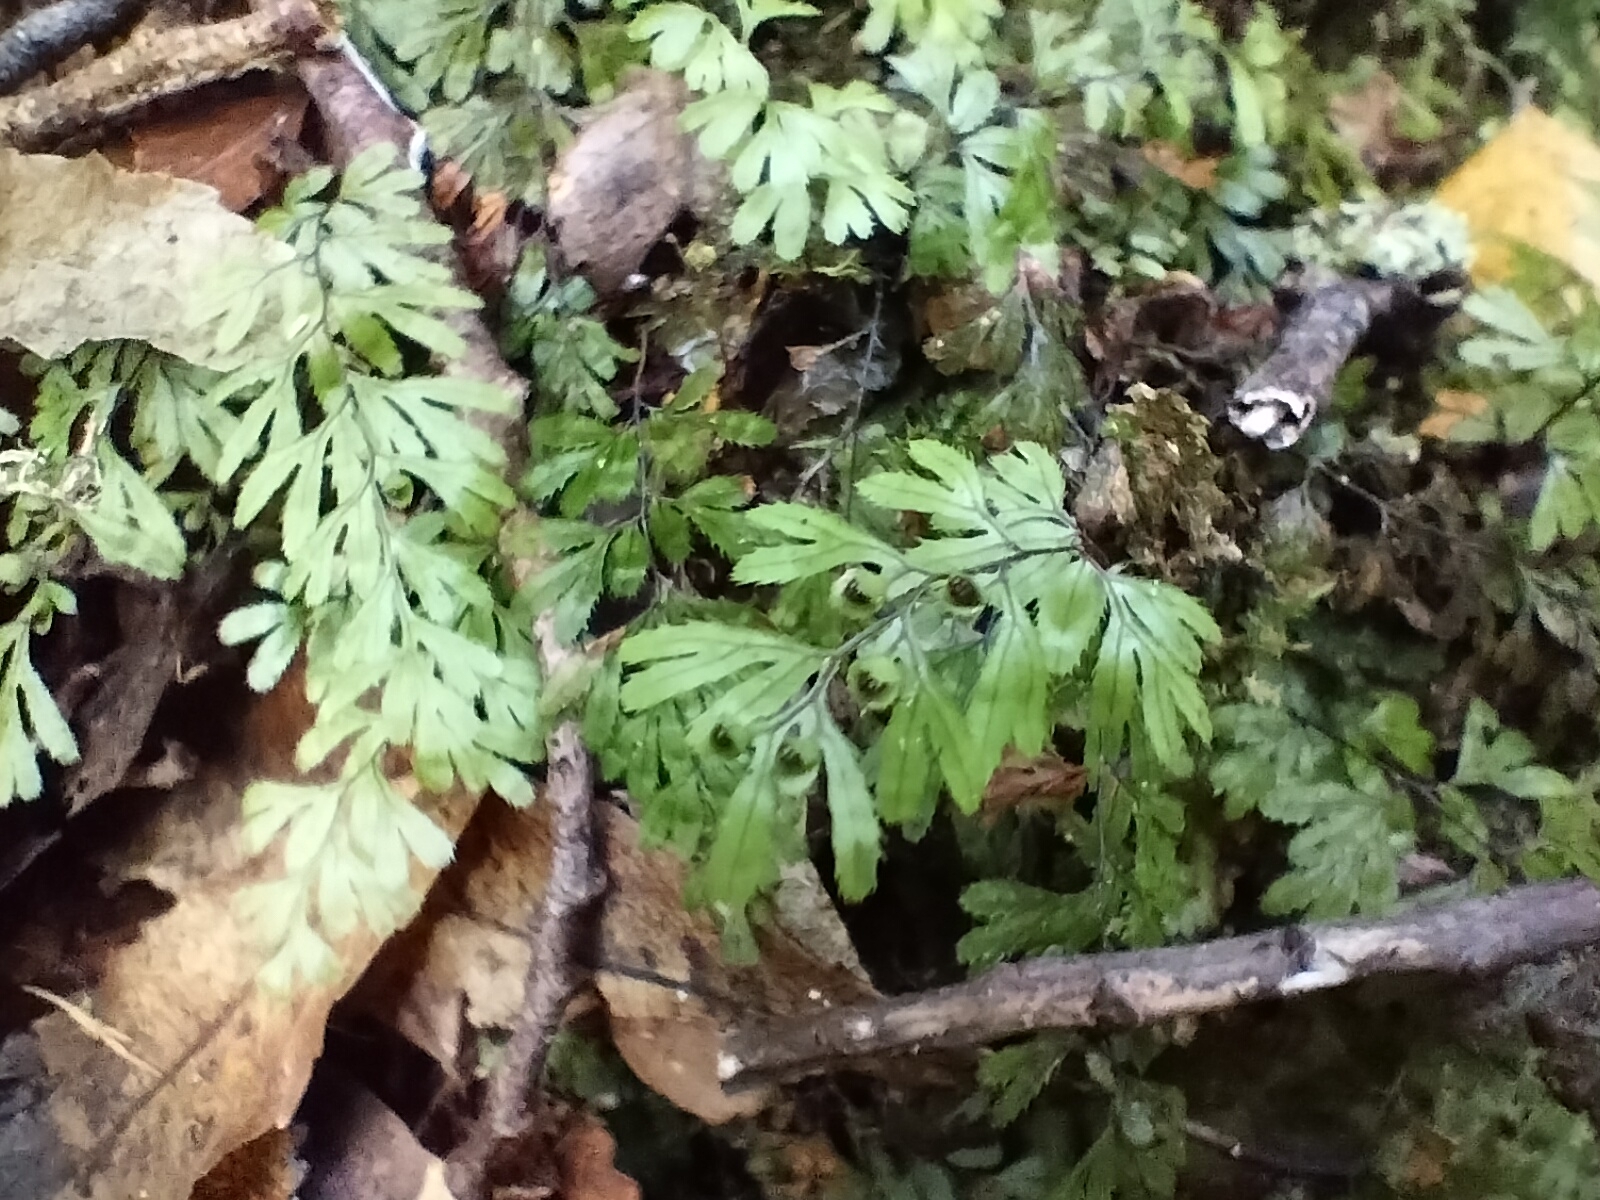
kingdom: Plantae
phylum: Tracheophyta
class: Polypodiopsida
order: Hymenophyllales
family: Hymenophyllaceae
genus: Hymenophyllum
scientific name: Hymenophyllum revolutum
